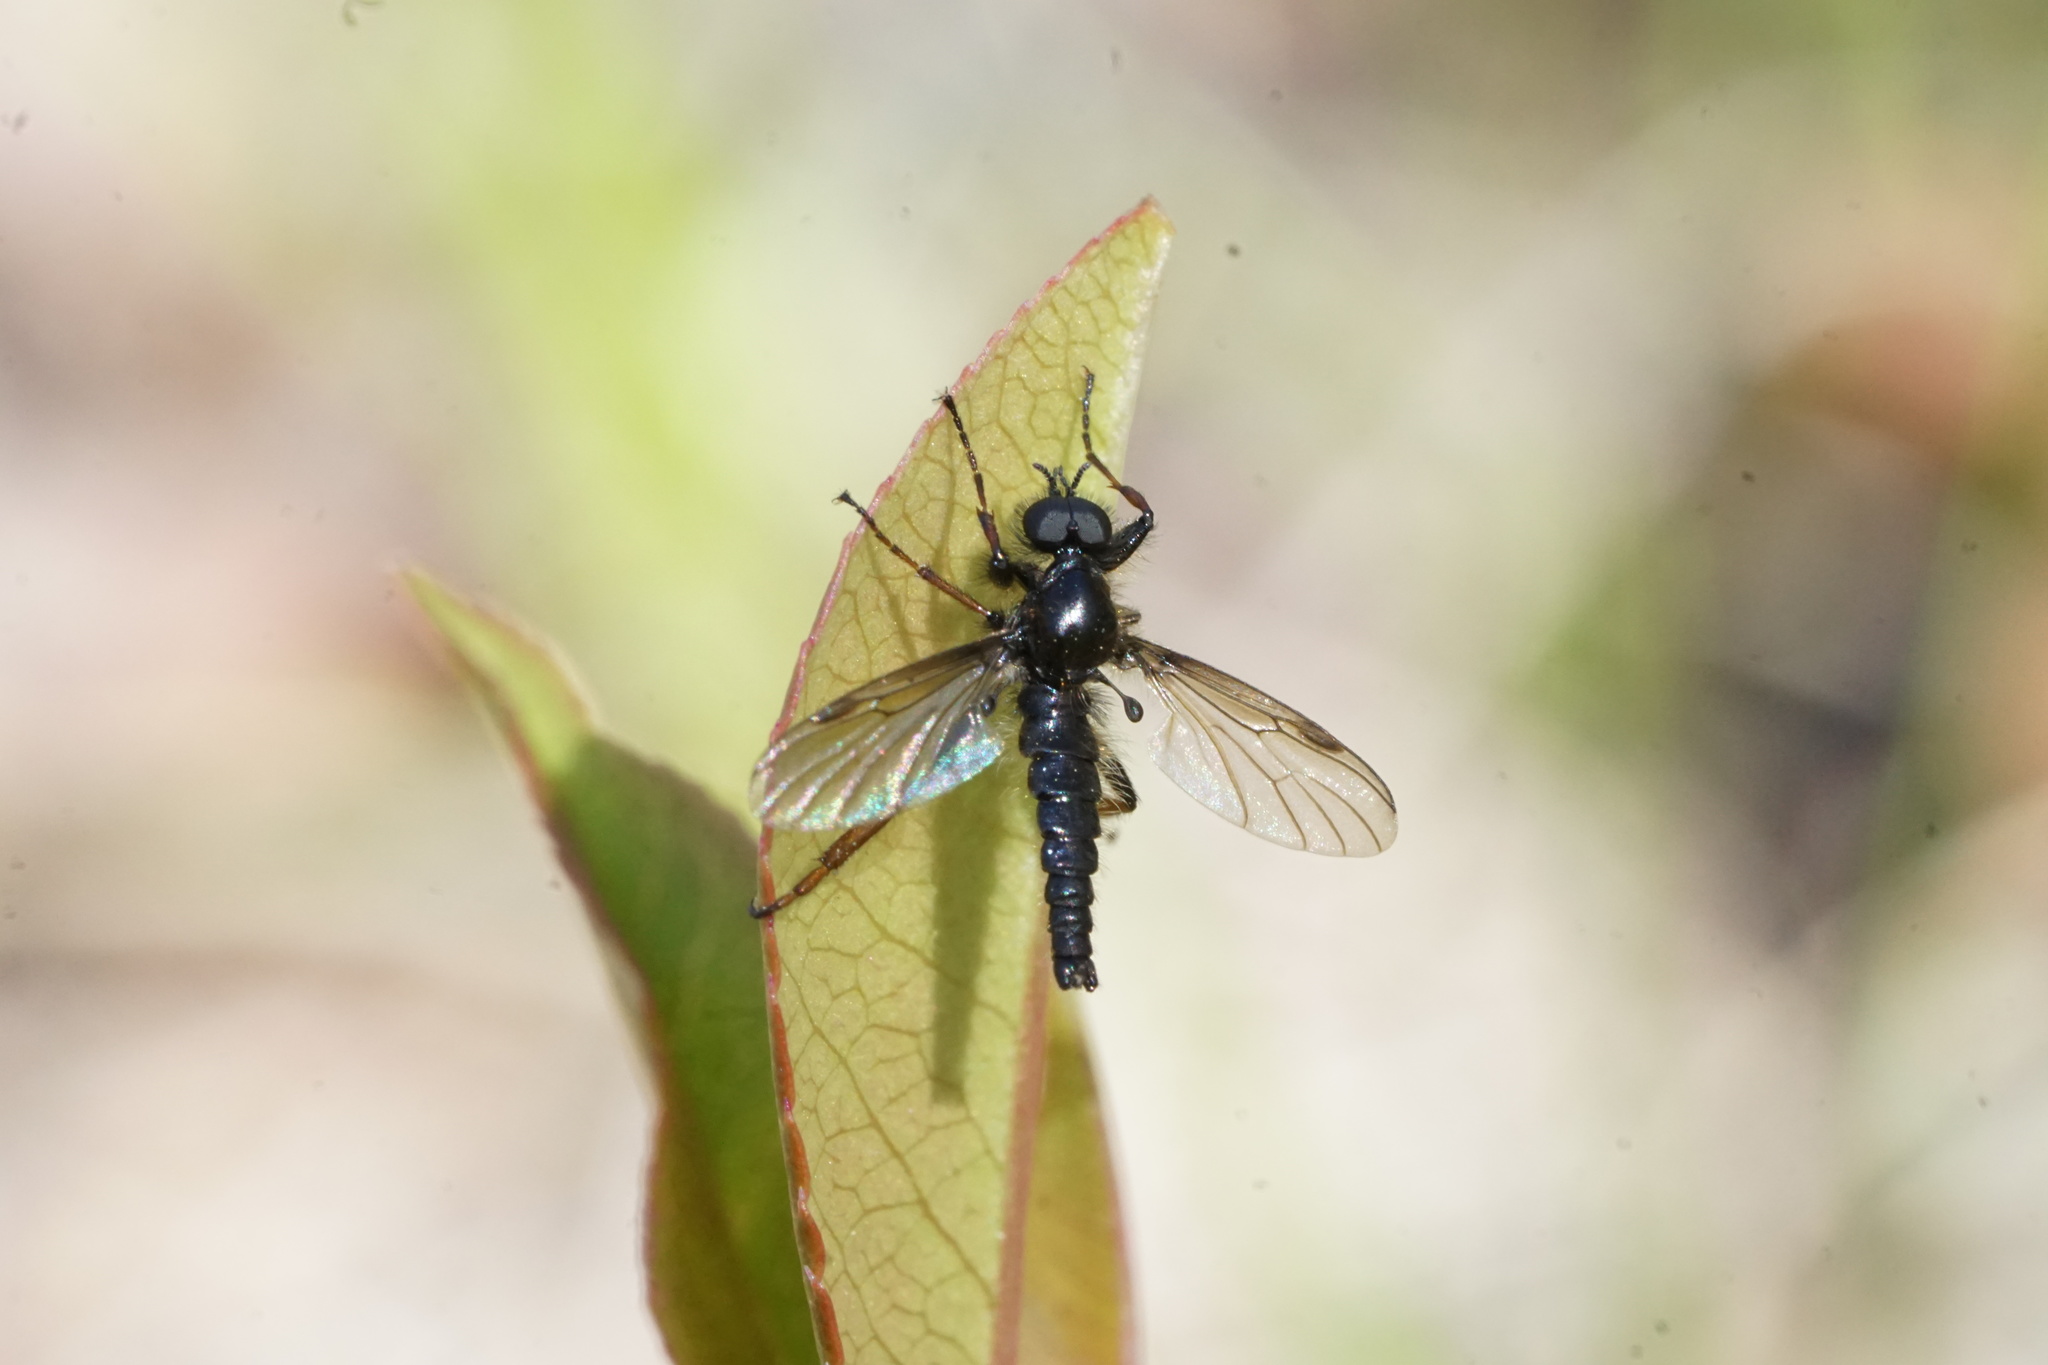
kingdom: Animalia
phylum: Arthropoda
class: Insecta
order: Diptera
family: Bibionidae
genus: Bibio
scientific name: Bibio lanigerus
